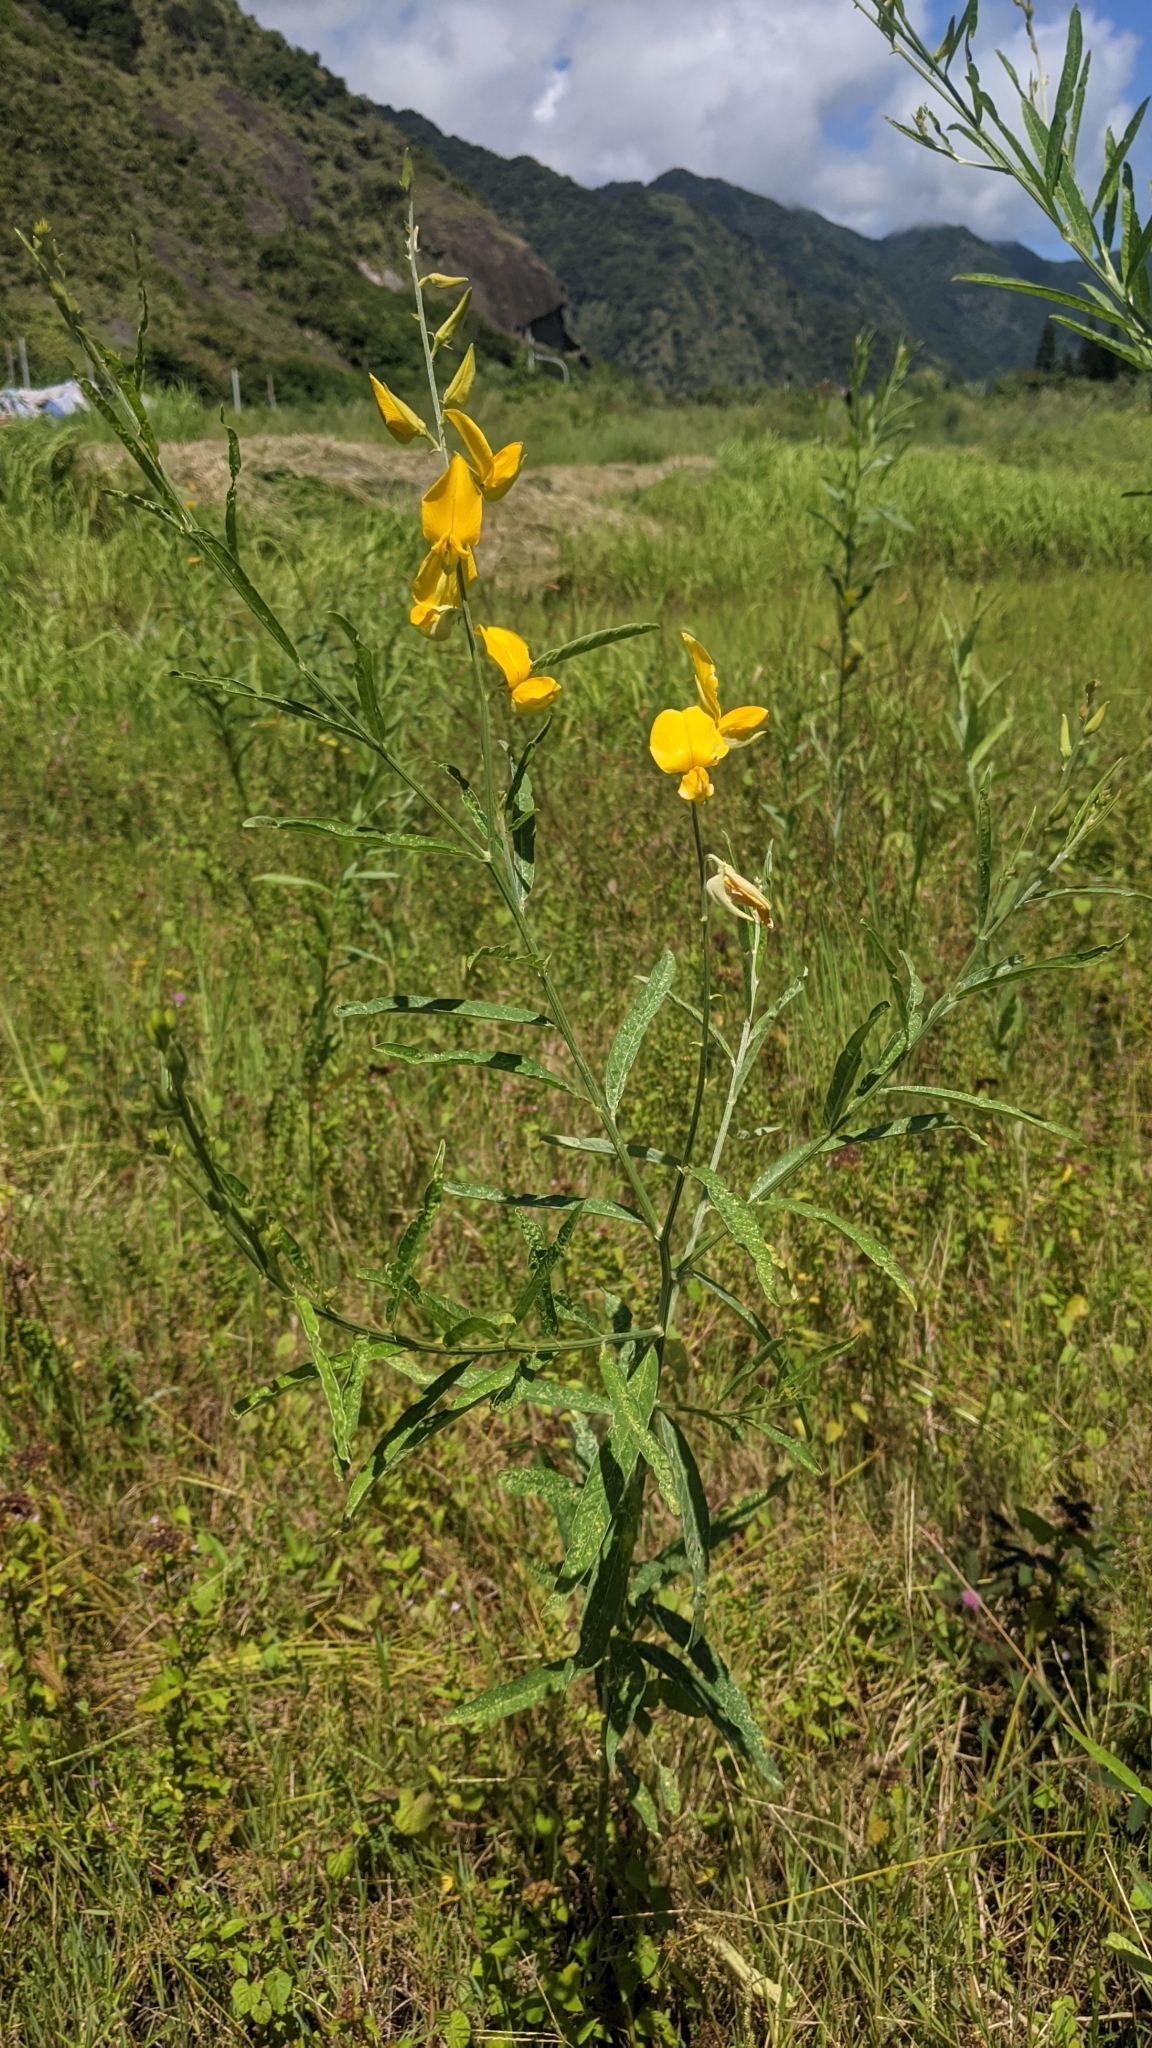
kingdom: Plantae
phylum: Tracheophyta
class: Magnoliopsida
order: Fabales
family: Fabaceae
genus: Crotalaria
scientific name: Crotalaria juncea
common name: Sunn hemp
